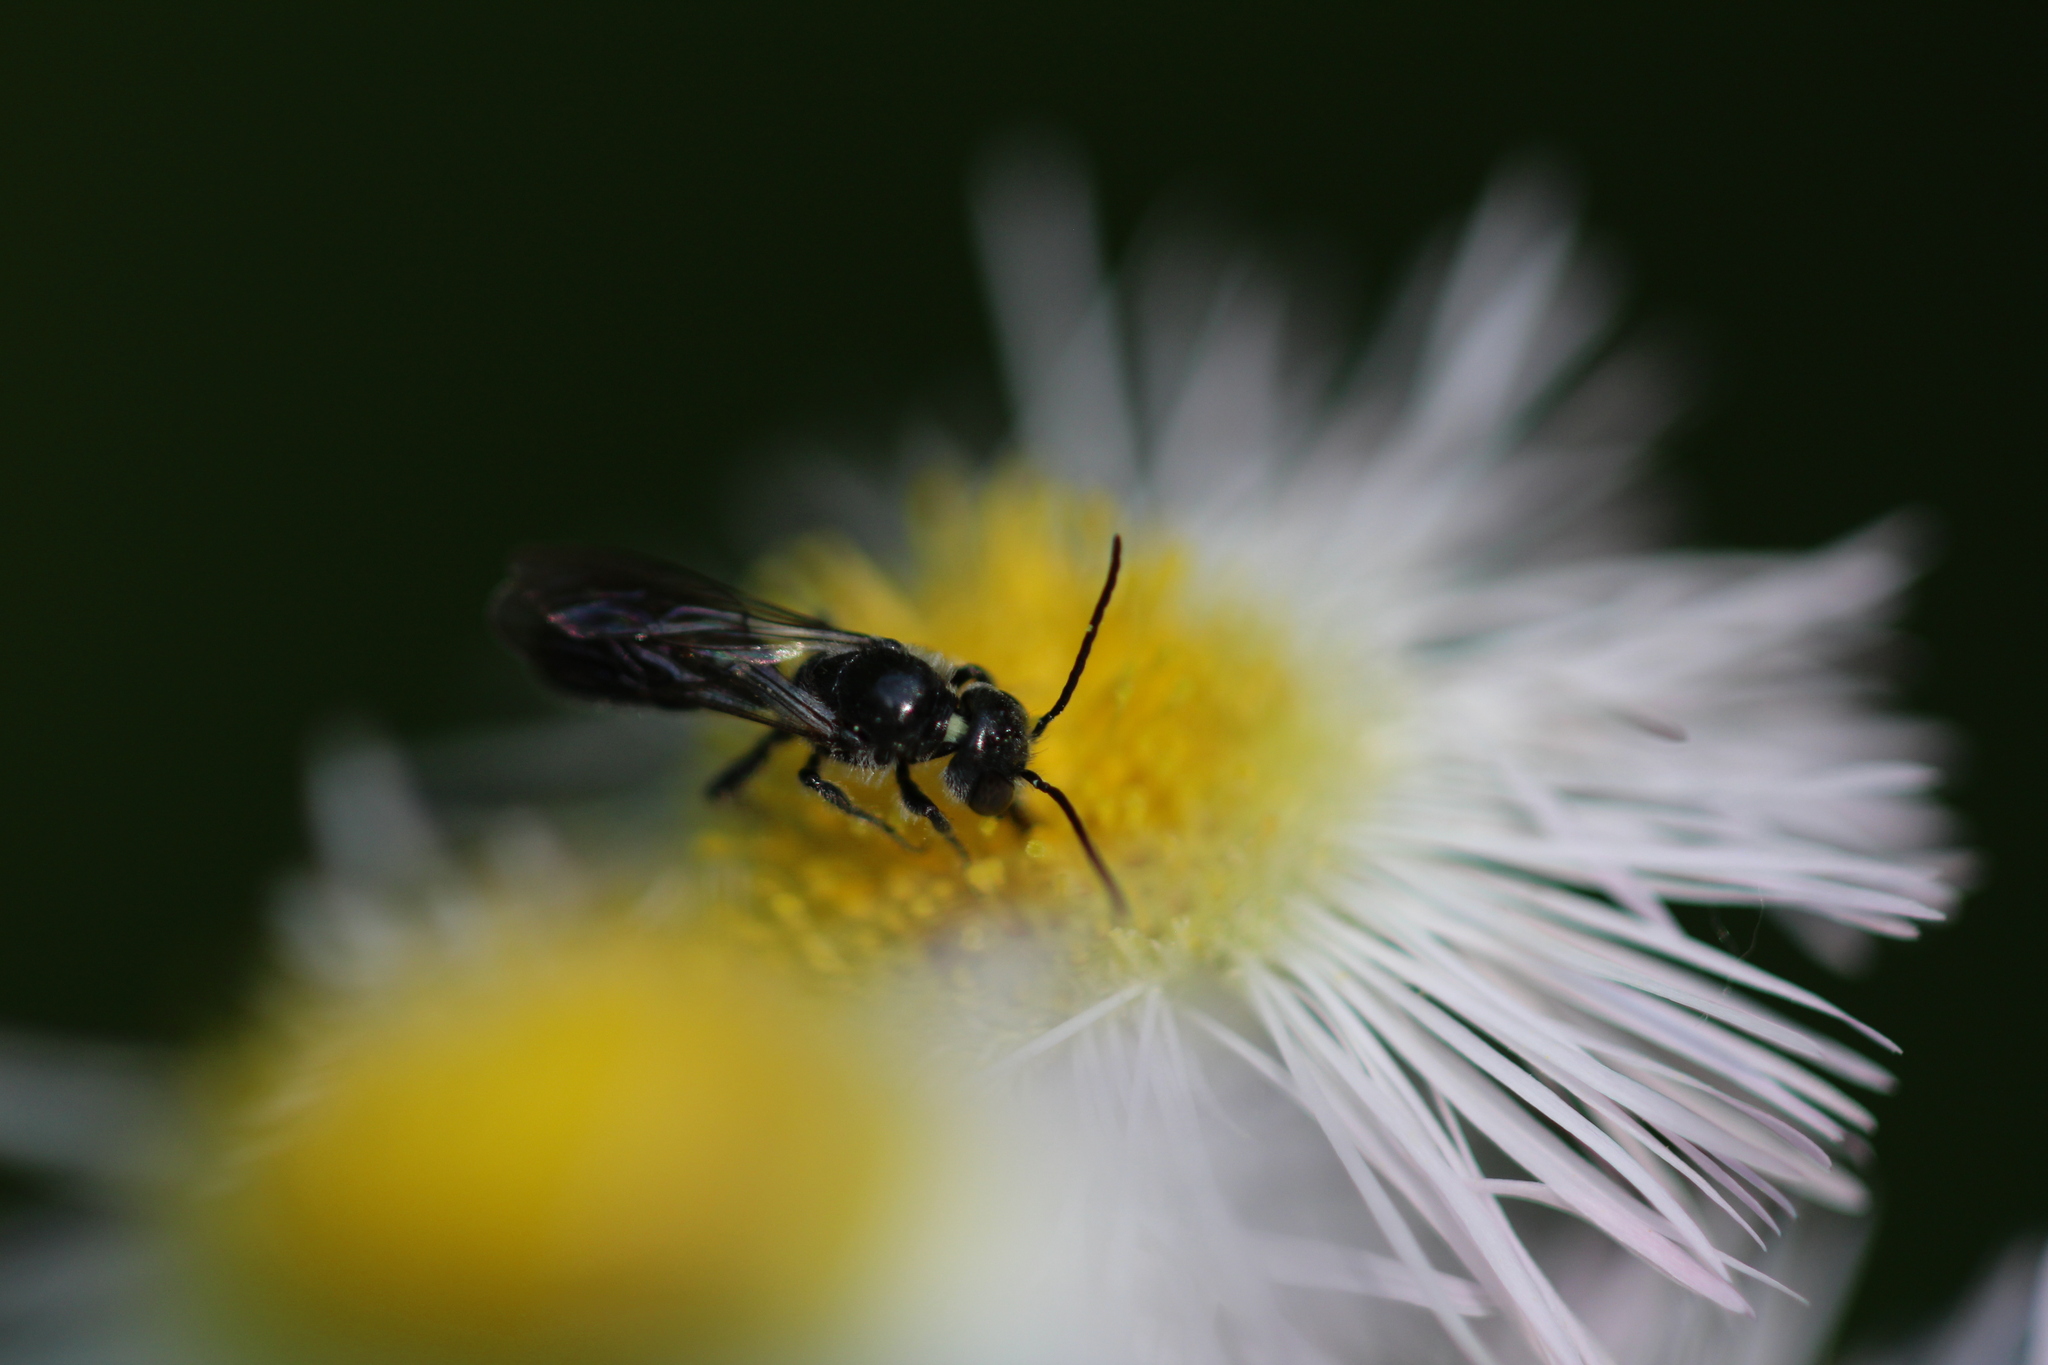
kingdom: Animalia
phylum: Arthropoda
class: Insecta
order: Hymenoptera
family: Megachilidae
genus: Chelostoma
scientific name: Chelostoma philadelphi
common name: Mock-orange scissor bee
